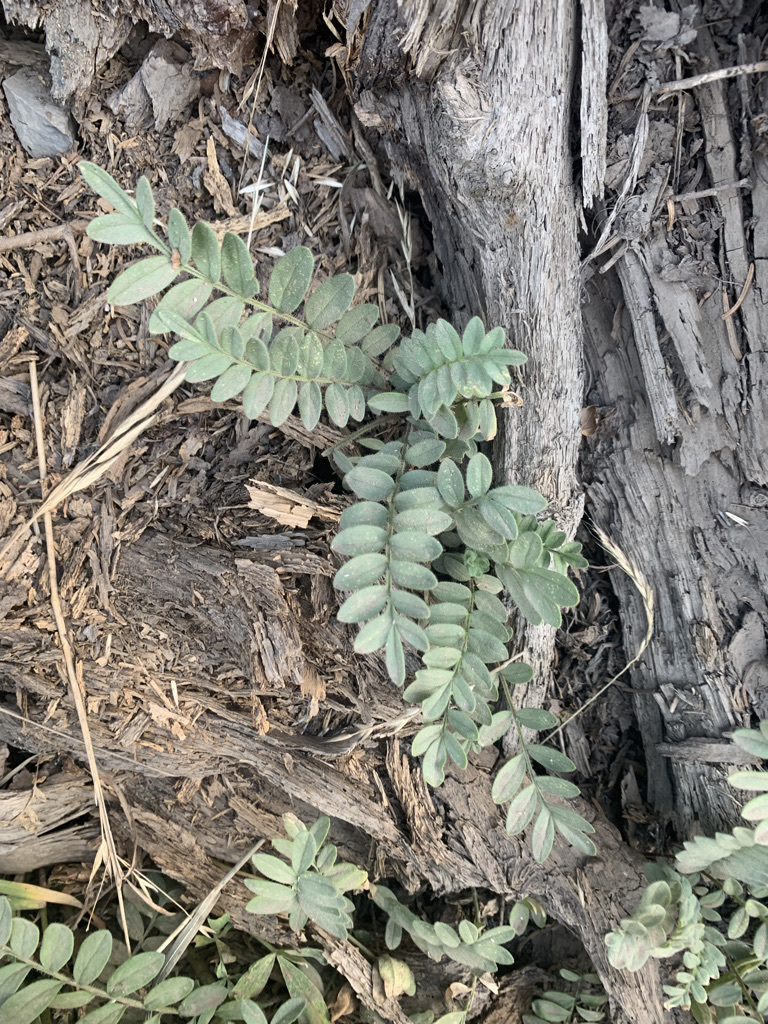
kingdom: Plantae
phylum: Tracheophyta
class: Magnoliopsida
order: Ericales
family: Polemoniaceae
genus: Polemonium
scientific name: Polemonium californicum
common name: California jacob's ladder
